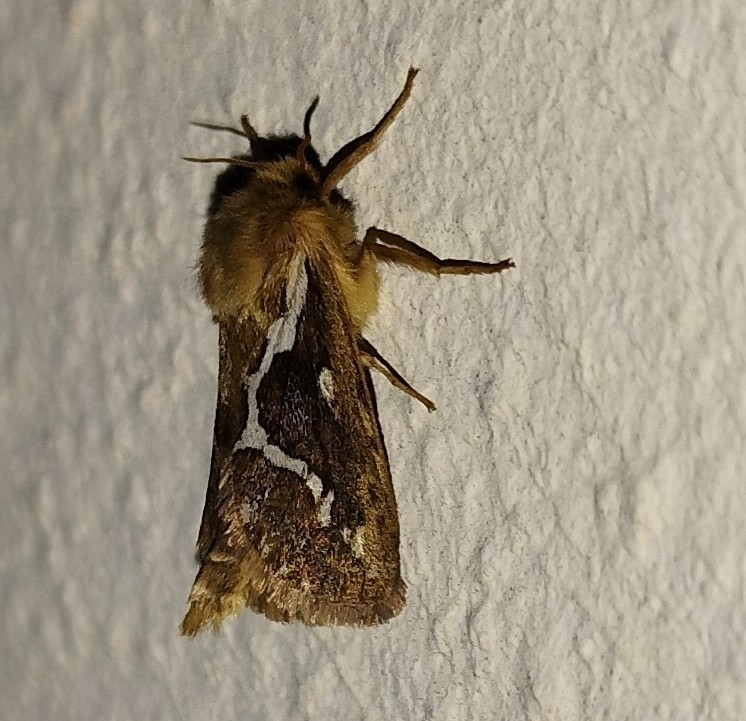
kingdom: Animalia
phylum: Arthropoda
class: Insecta
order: Lepidoptera
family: Hepialidae
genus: Korscheltellus
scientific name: Korscheltellus lupulina
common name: Common swift
